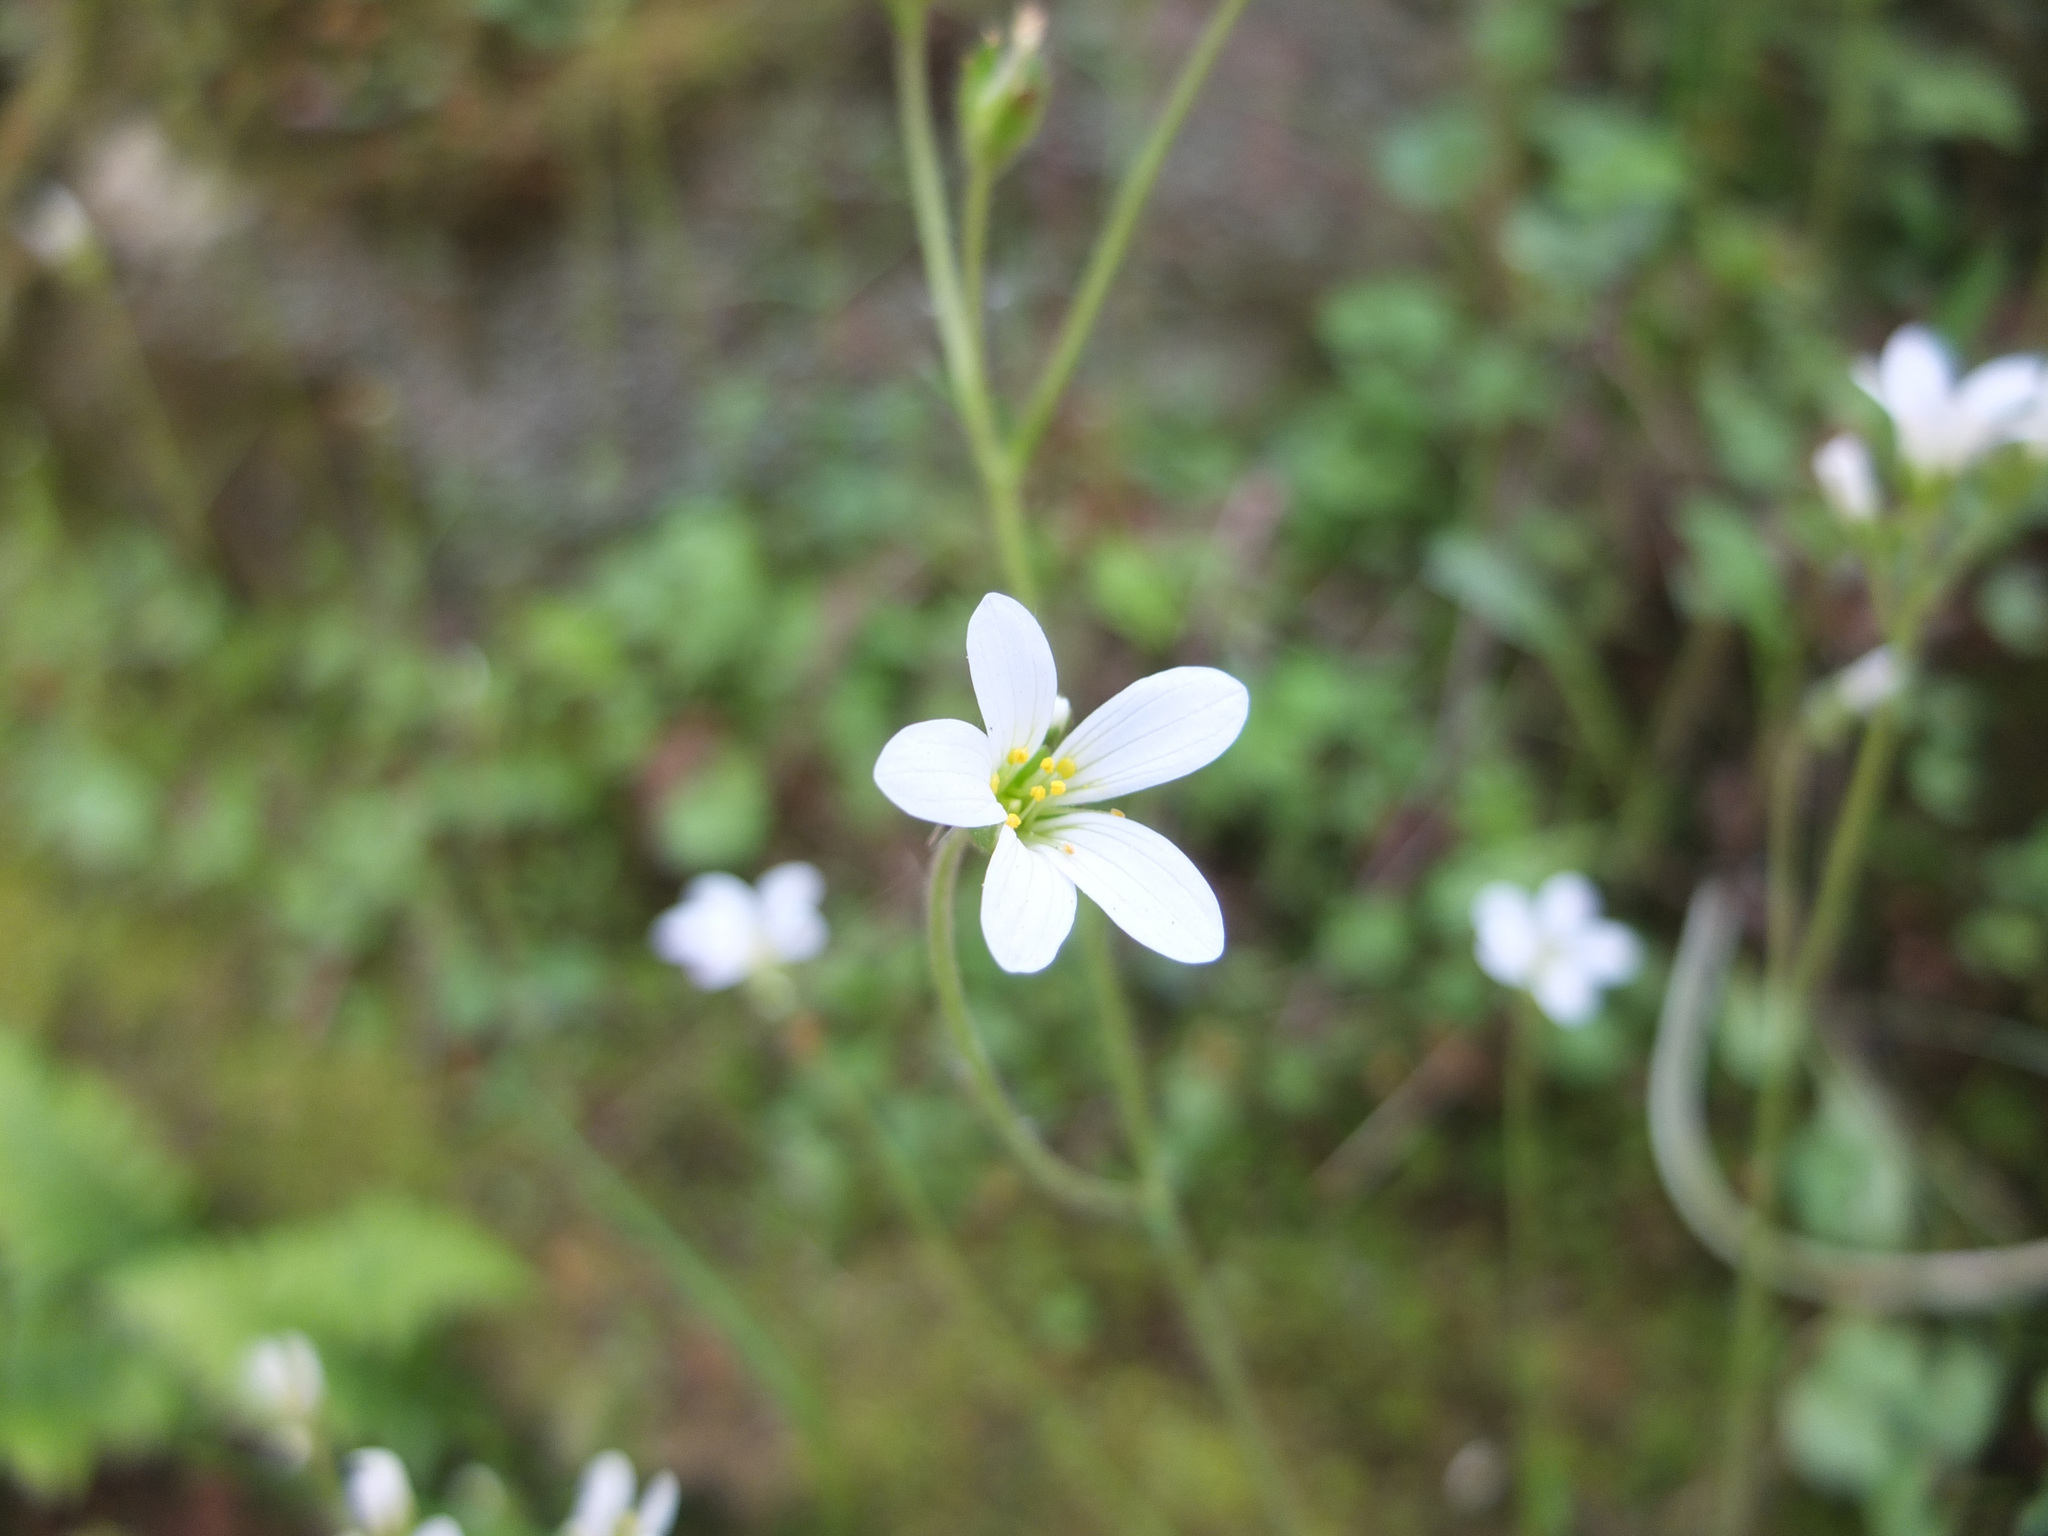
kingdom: Plantae
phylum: Tracheophyta
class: Magnoliopsida
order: Saxifragales
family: Saxifragaceae
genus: Saxifraga
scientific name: Saxifraga granulata
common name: Meadow saxifrage
